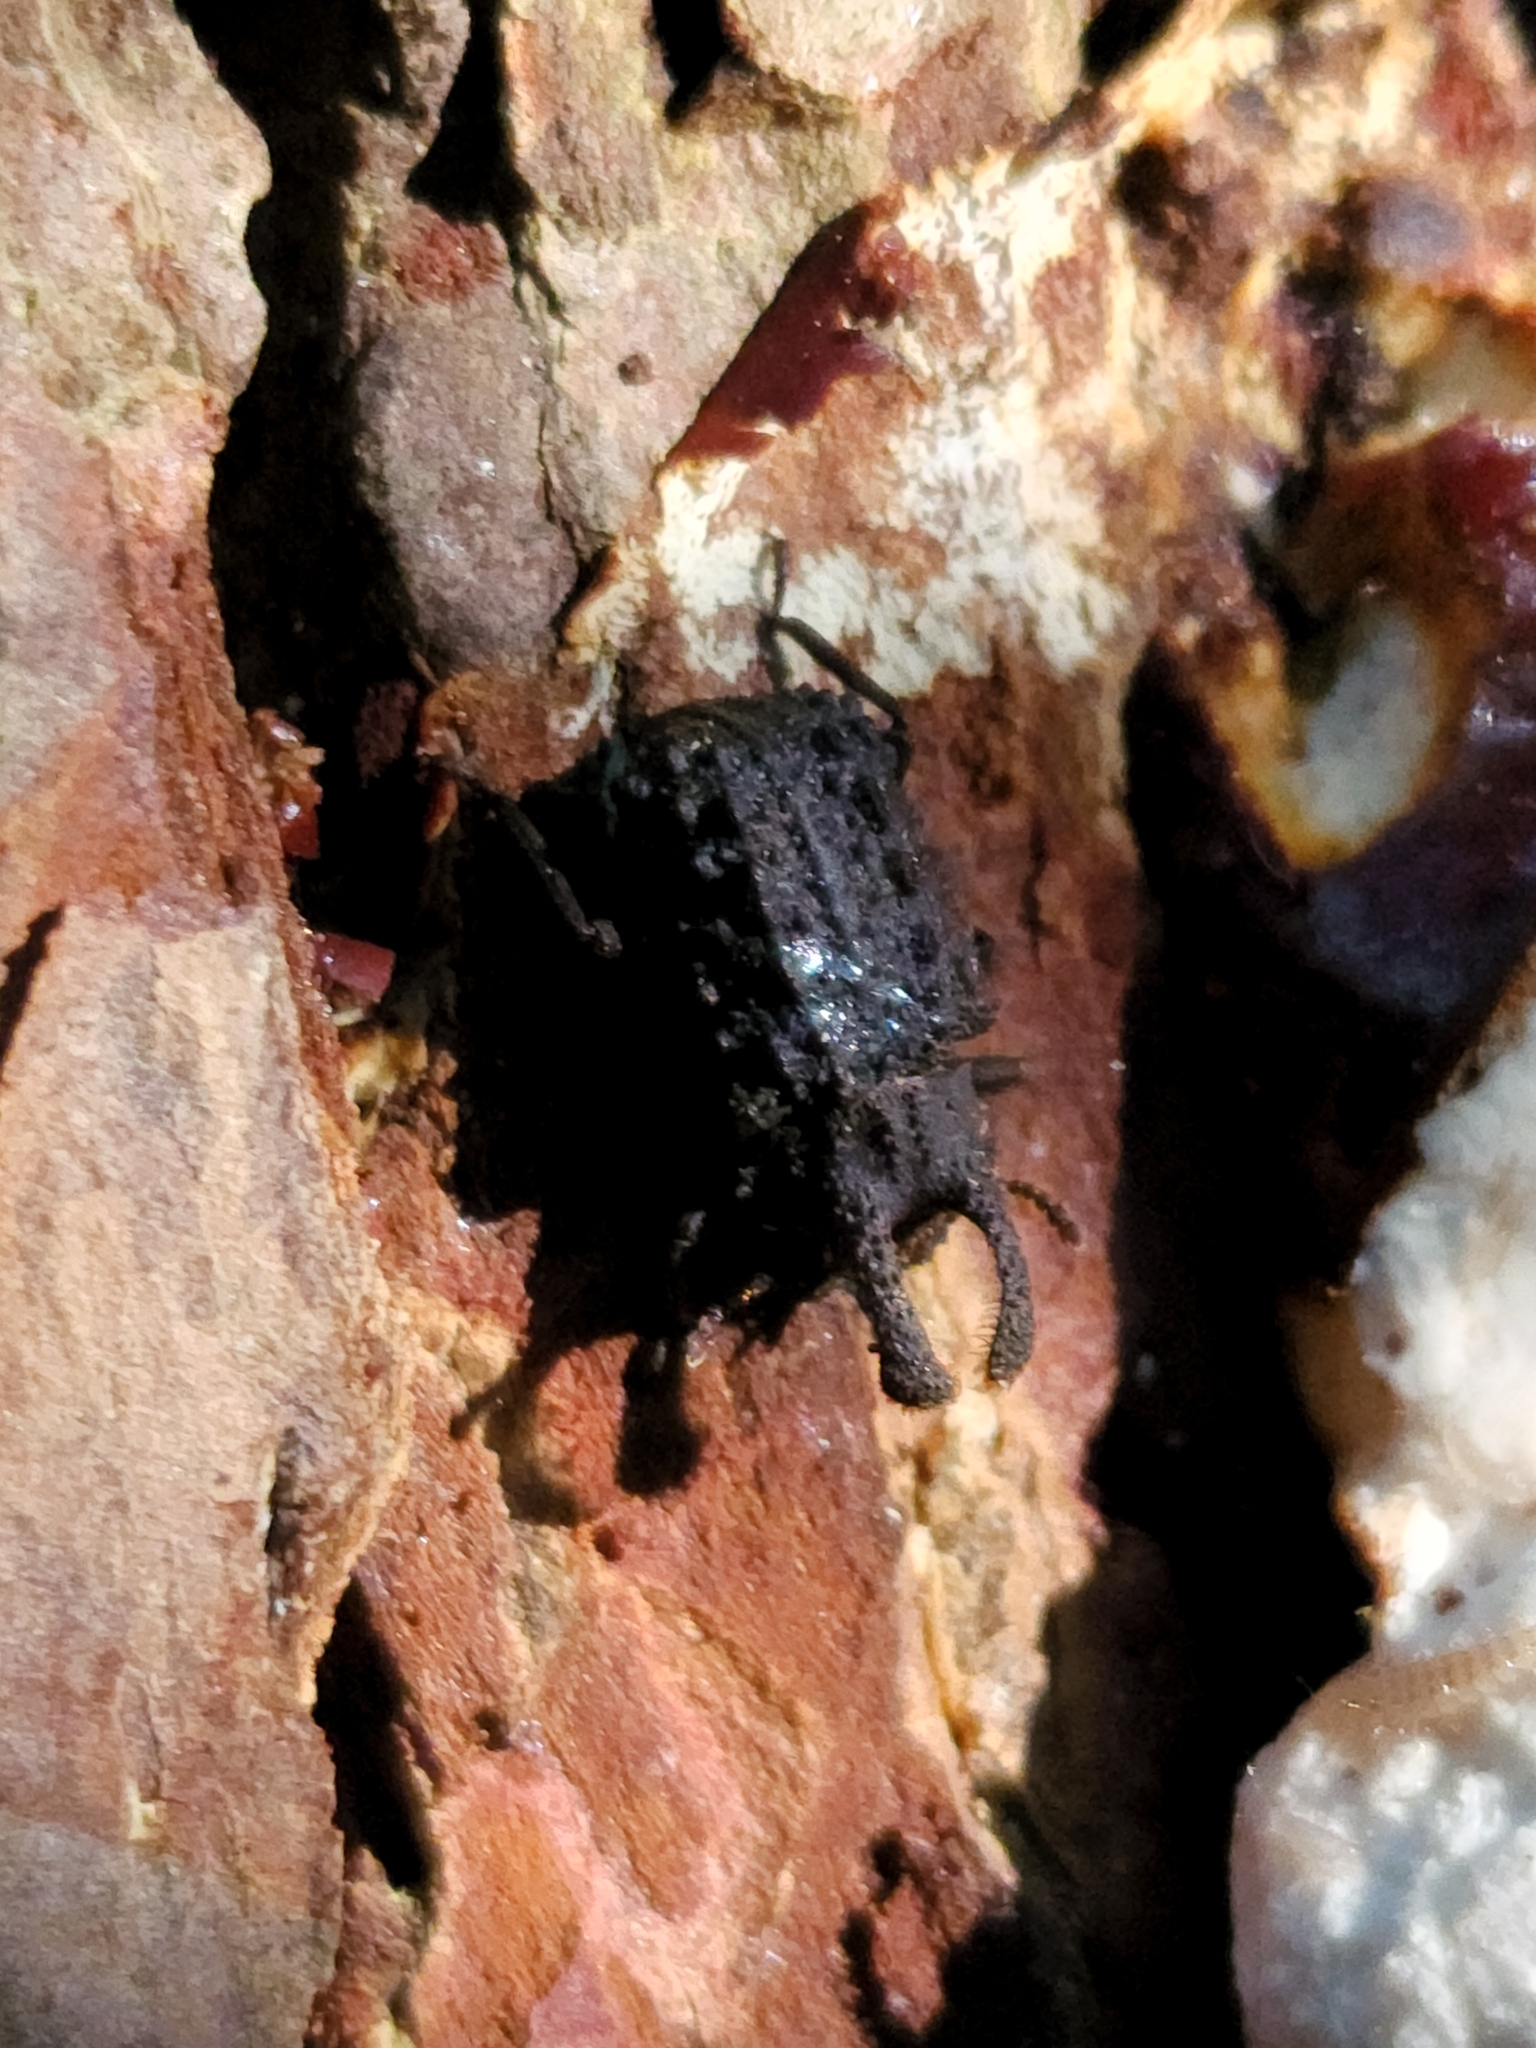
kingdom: Animalia
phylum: Arthropoda
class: Insecta
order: Coleoptera
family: Tenebrionidae
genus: Gnatocerus
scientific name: Gnatocerus cornutus
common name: Broad-horned flour beetle
